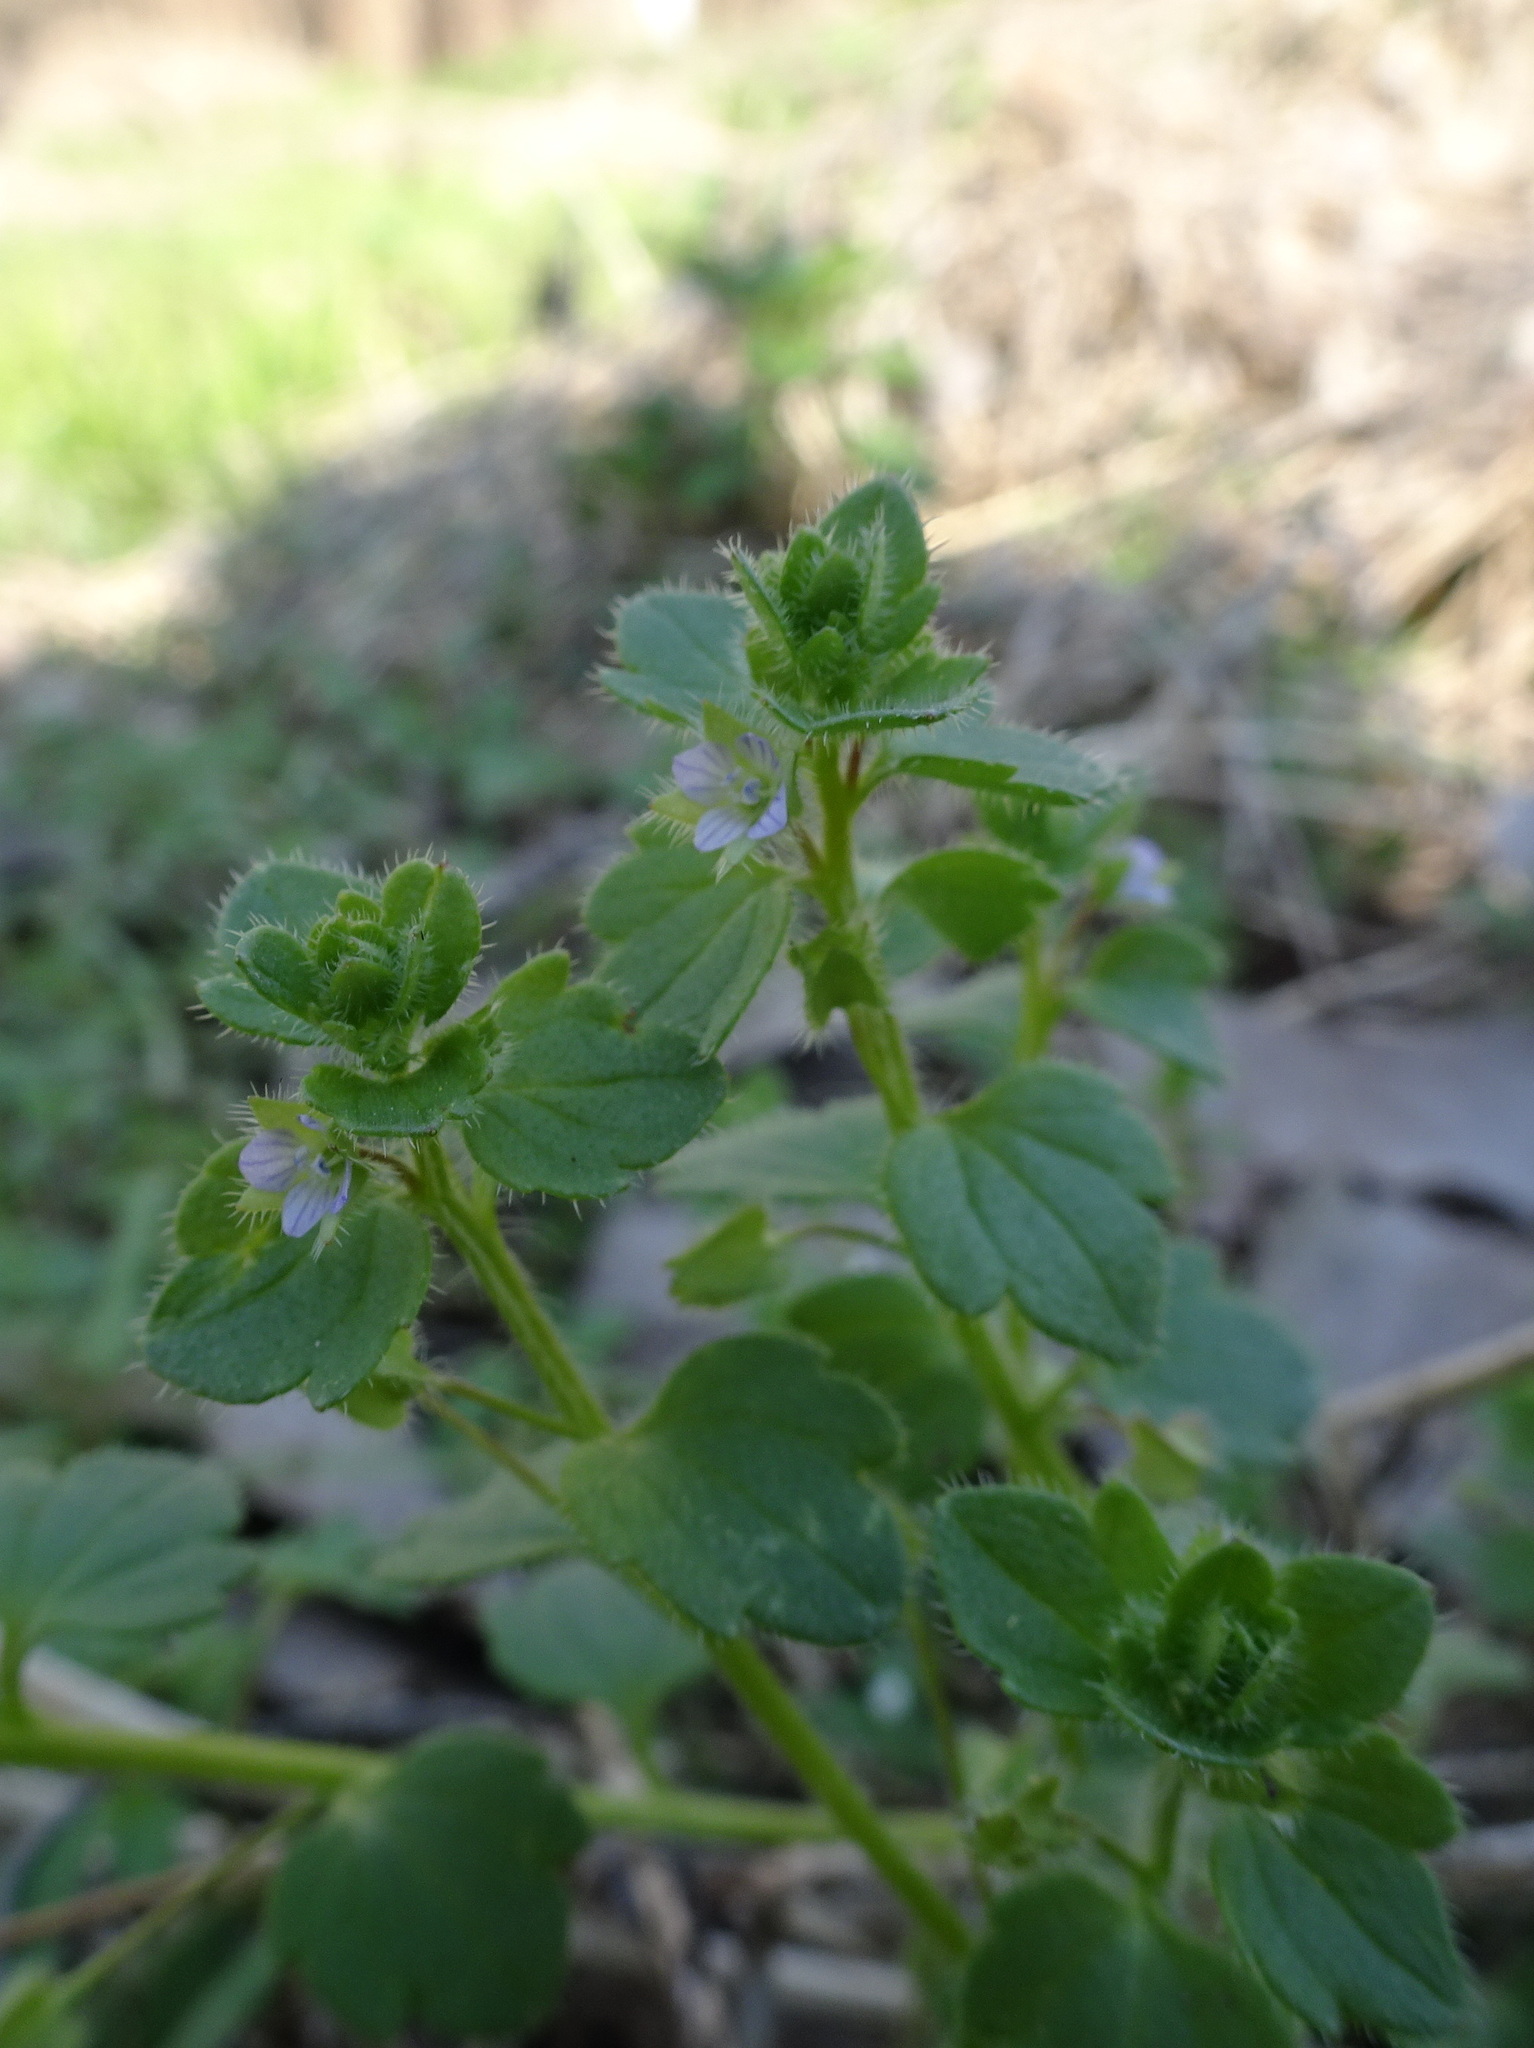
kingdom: Plantae
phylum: Tracheophyta
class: Magnoliopsida
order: Lamiales
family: Plantaginaceae
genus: Veronica
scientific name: Veronica hederifolia
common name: Ivy-leaved speedwell
